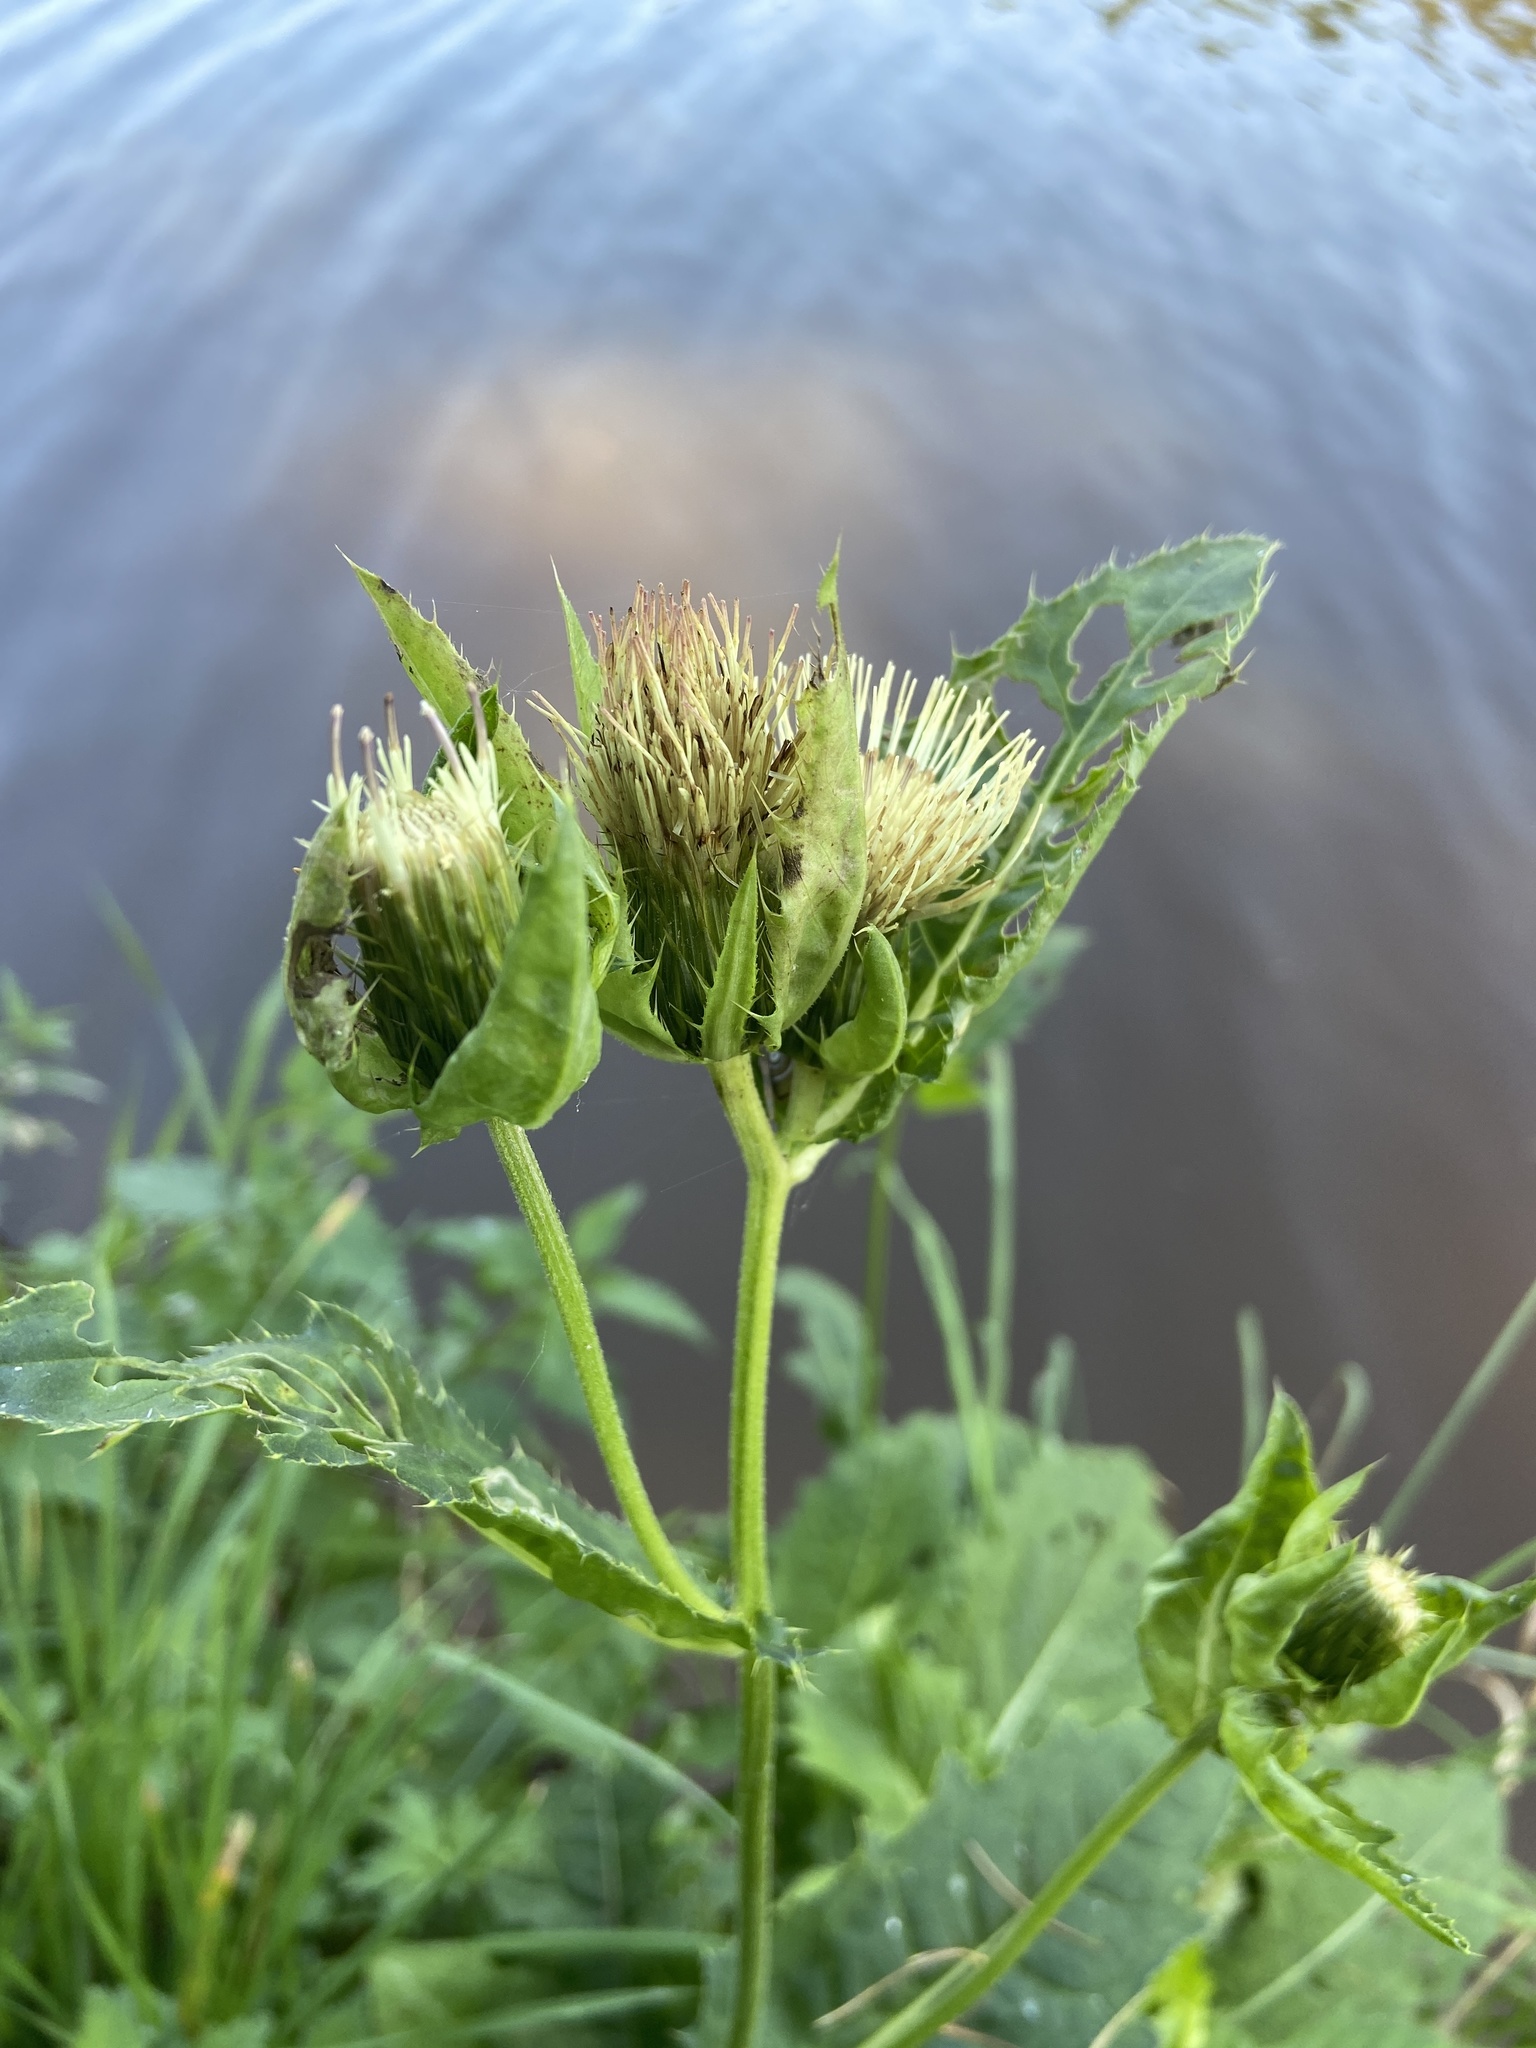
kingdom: Plantae
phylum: Tracheophyta
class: Magnoliopsida
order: Asterales
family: Asteraceae
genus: Cirsium
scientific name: Cirsium oleraceum
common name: Cabbage thistle
